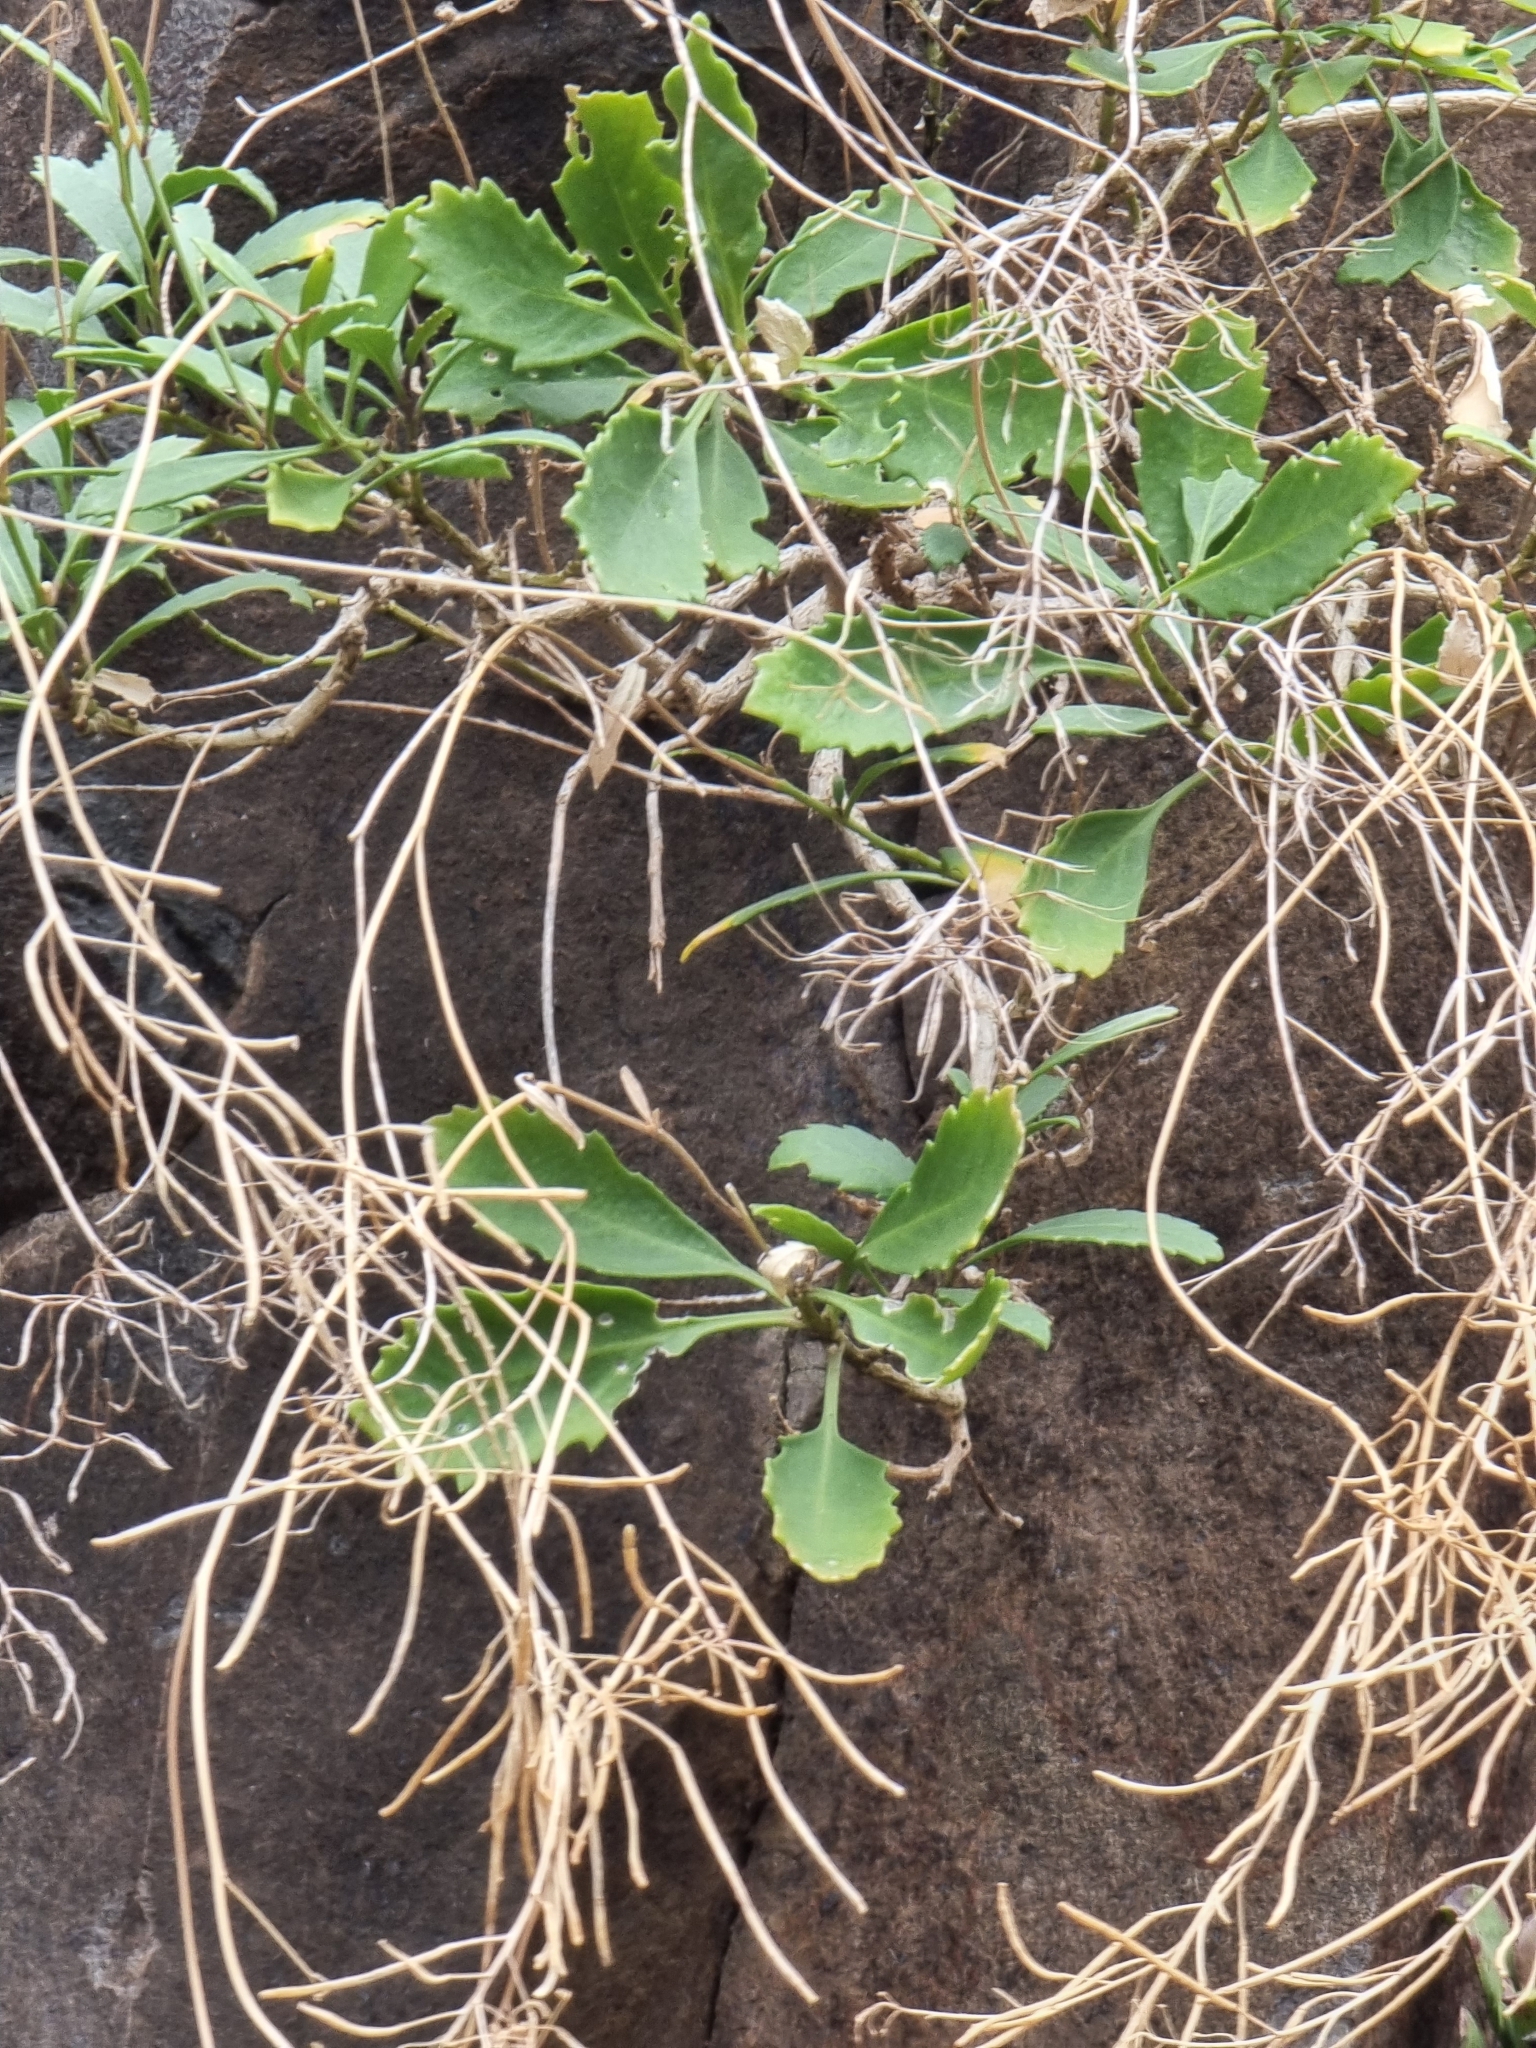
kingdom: Plantae
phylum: Tracheophyta
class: Magnoliopsida
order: Brassicales
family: Brassicaceae
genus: Sinapidendron
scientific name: Sinapidendron frutescens
